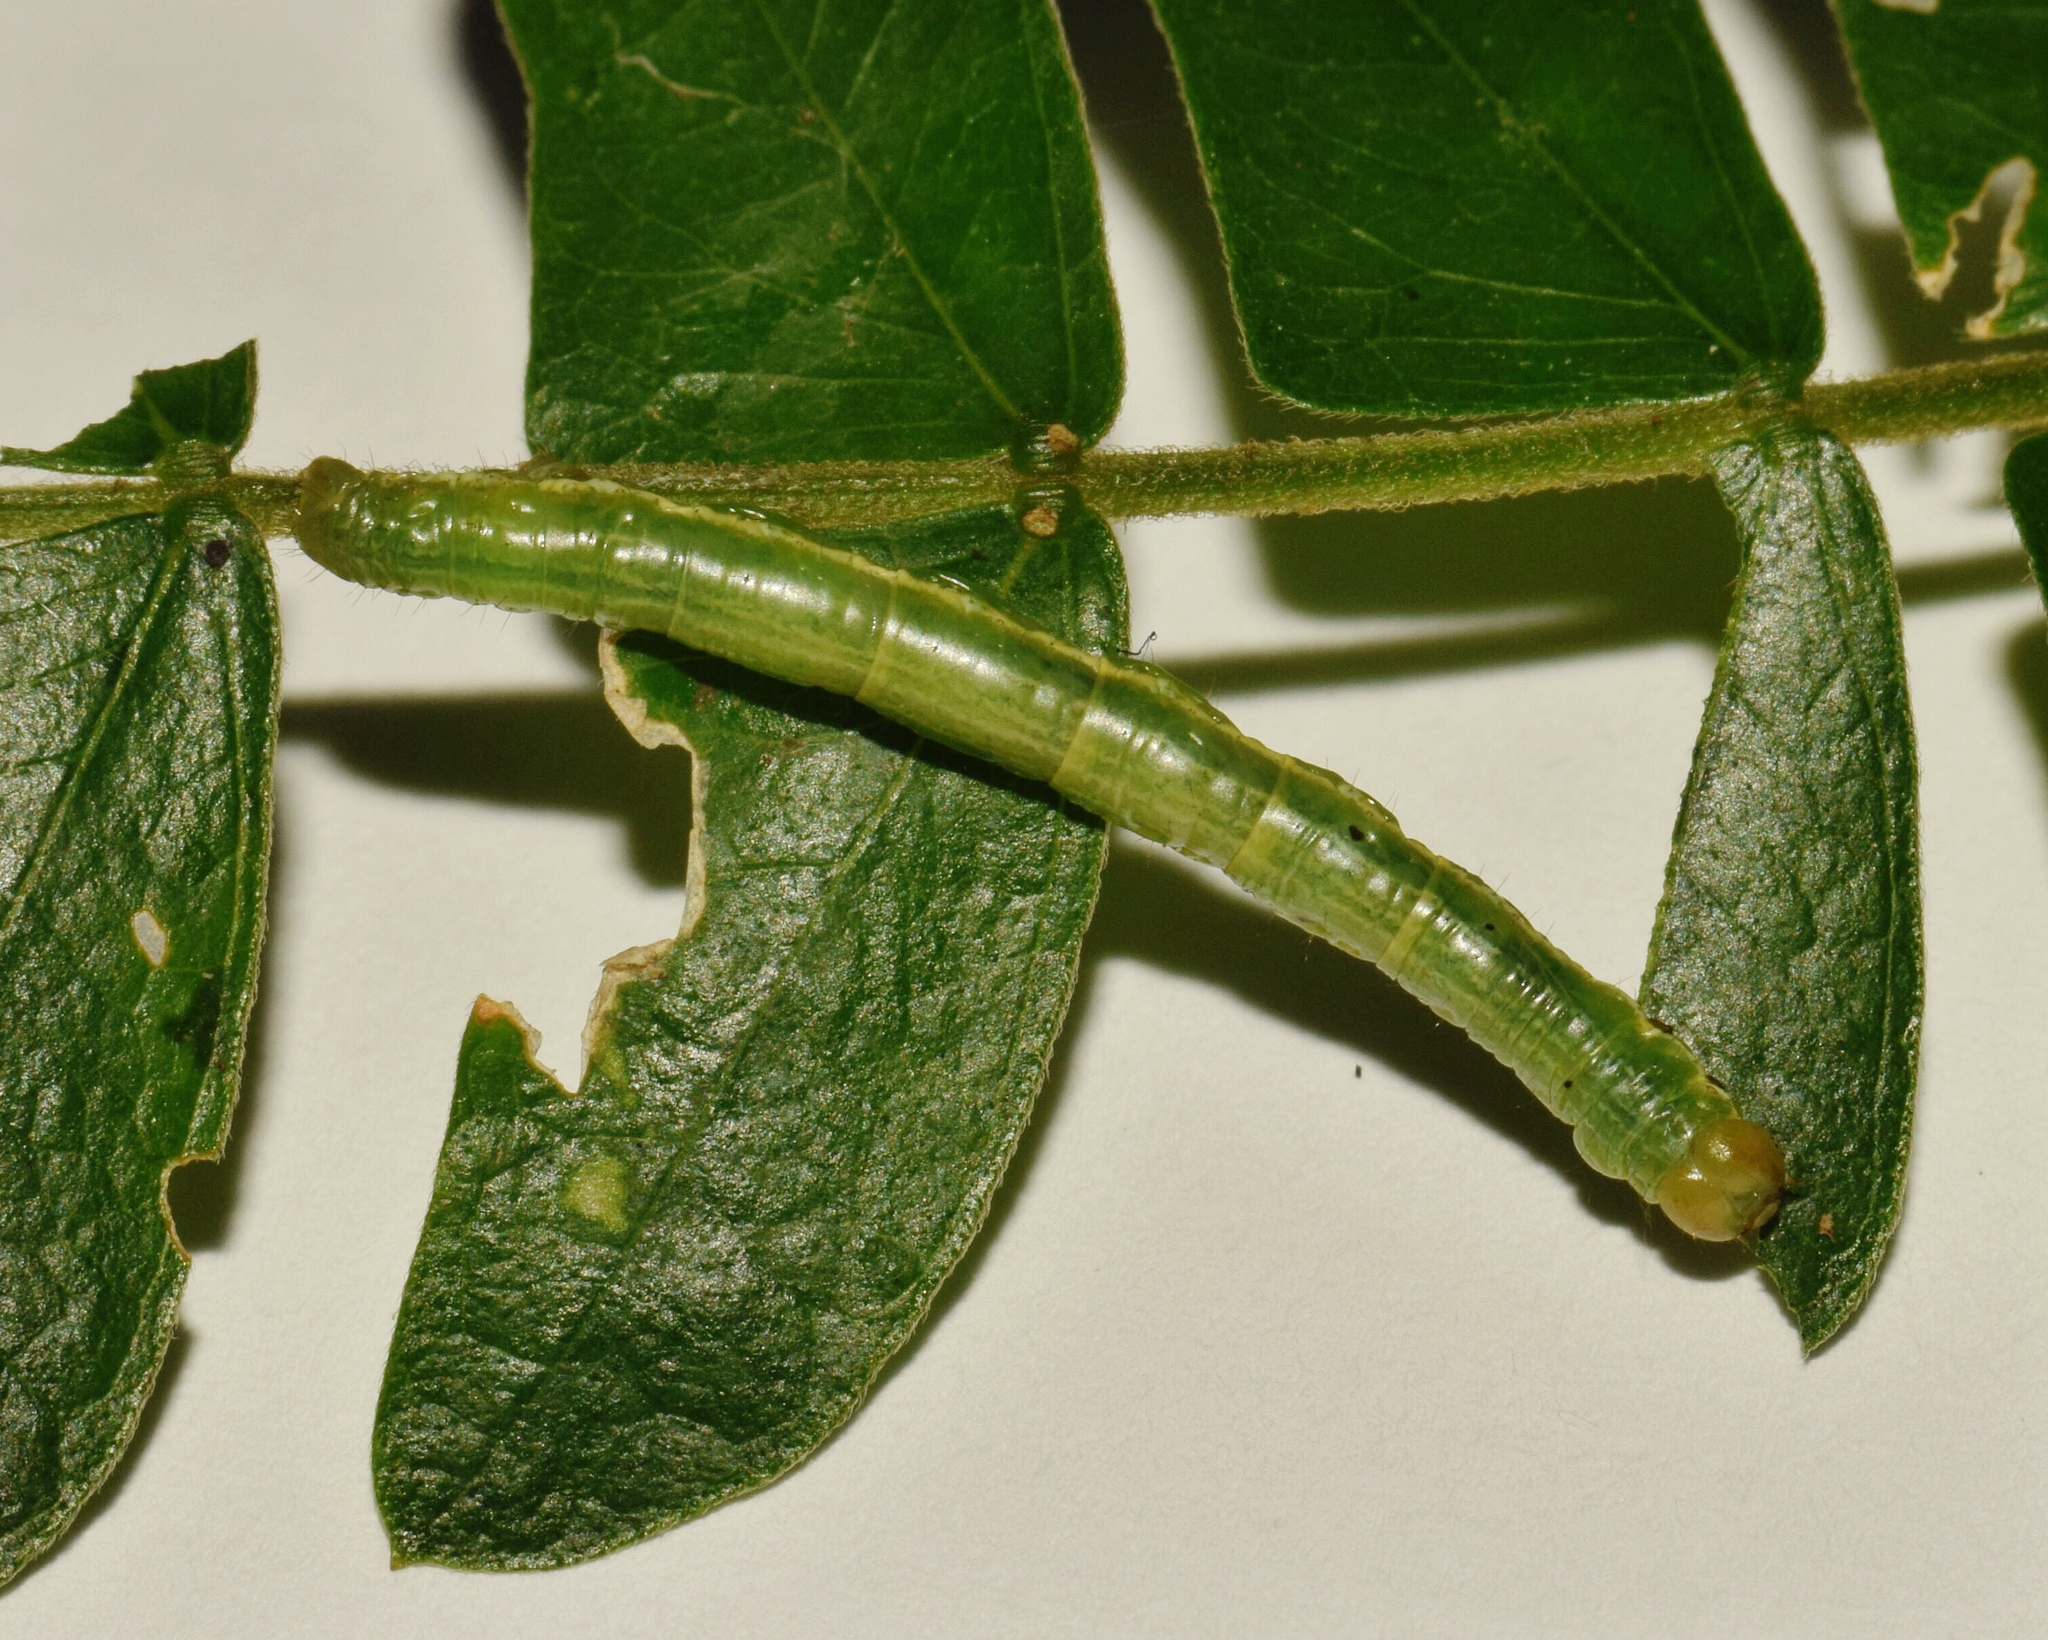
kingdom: Animalia
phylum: Arthropoda
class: Insecta
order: Lepidoptera
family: Geometridae
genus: Chiasmia
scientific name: Chiasmia natalensis
